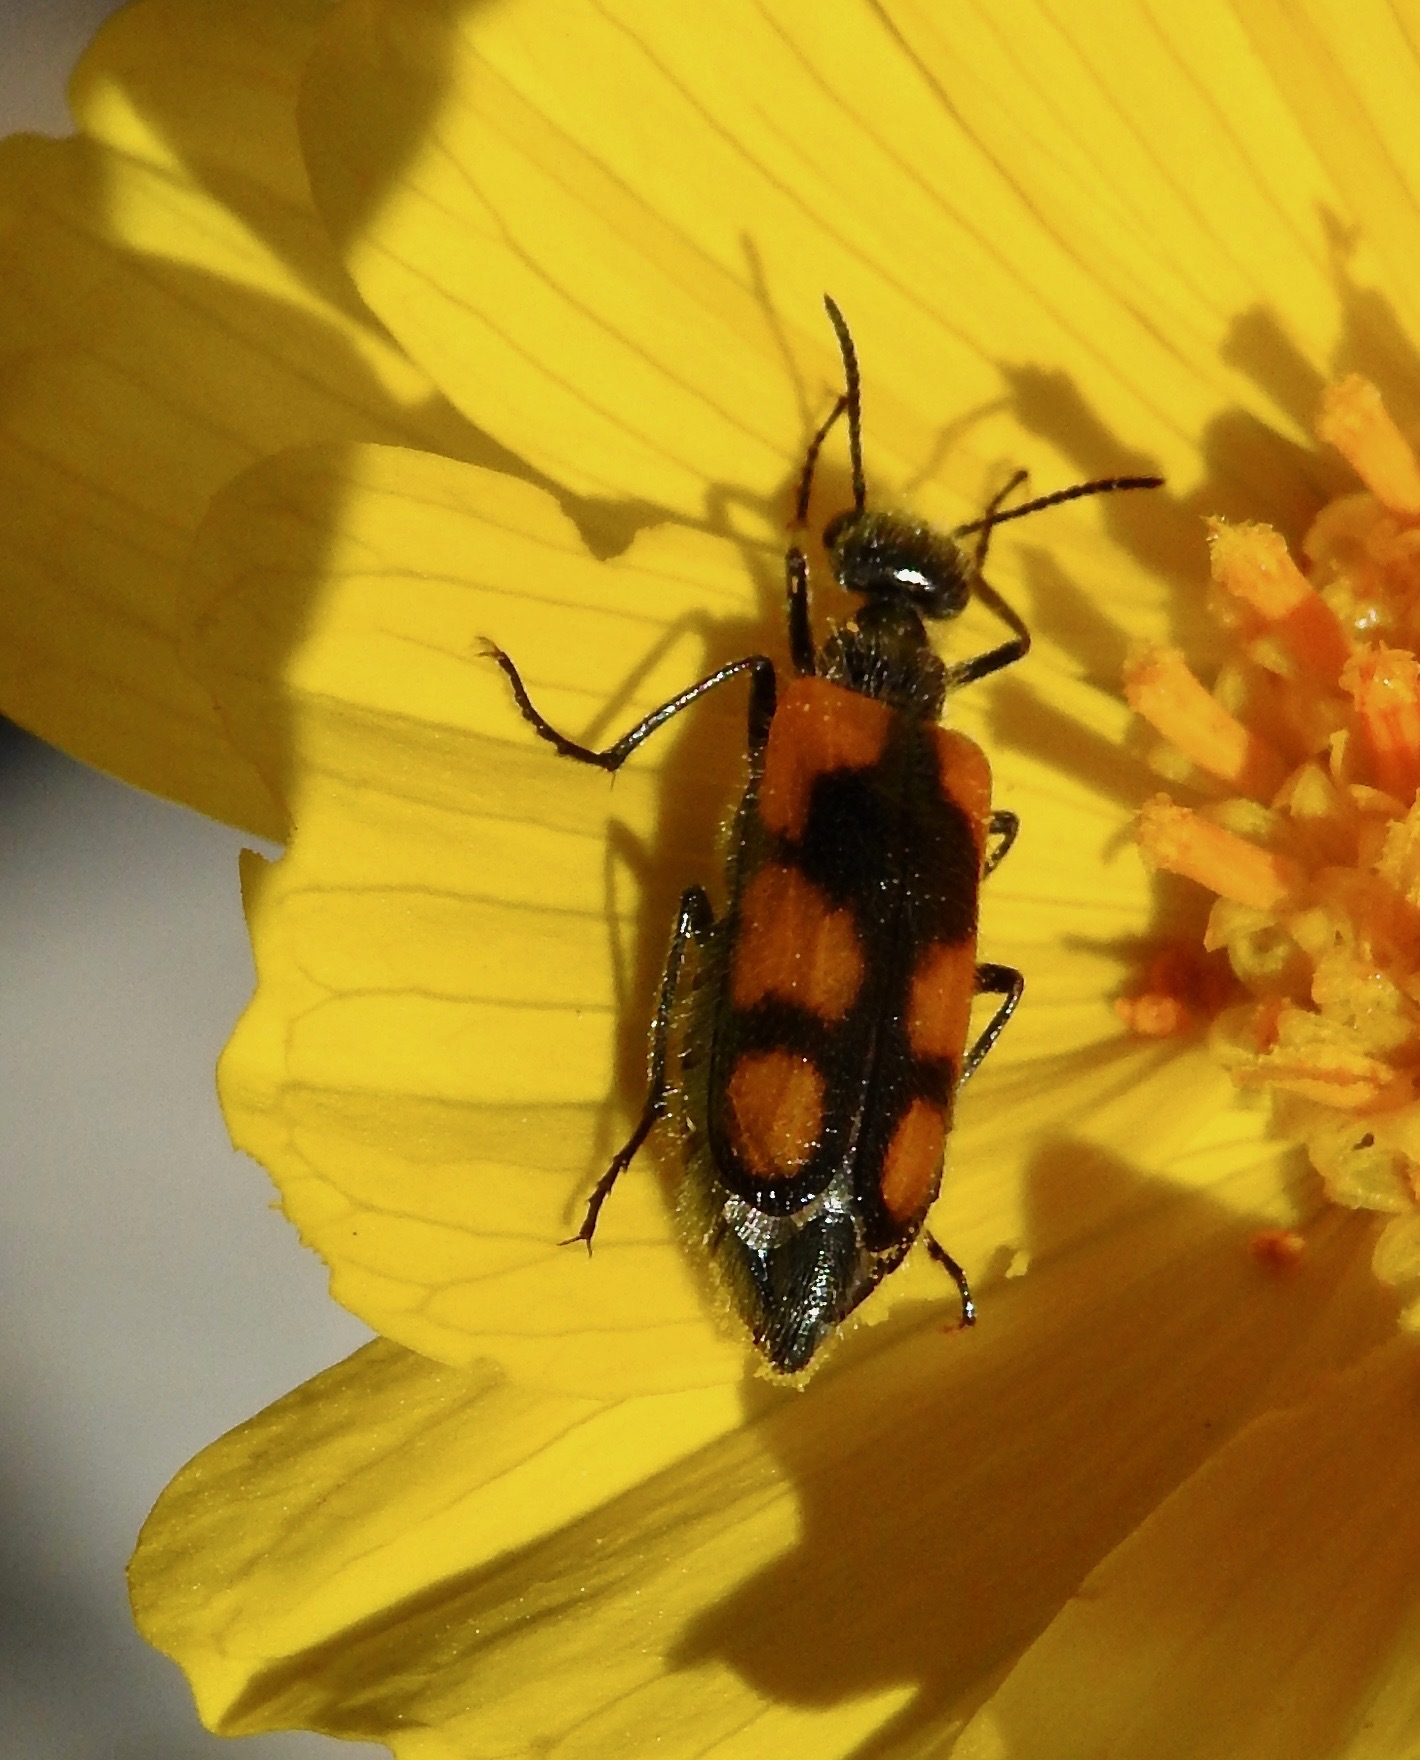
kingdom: Animalia
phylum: Arthropoda
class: Insecta
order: Coleoptera
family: Meloidae
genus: Eupompha
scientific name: Eupompha elegans
